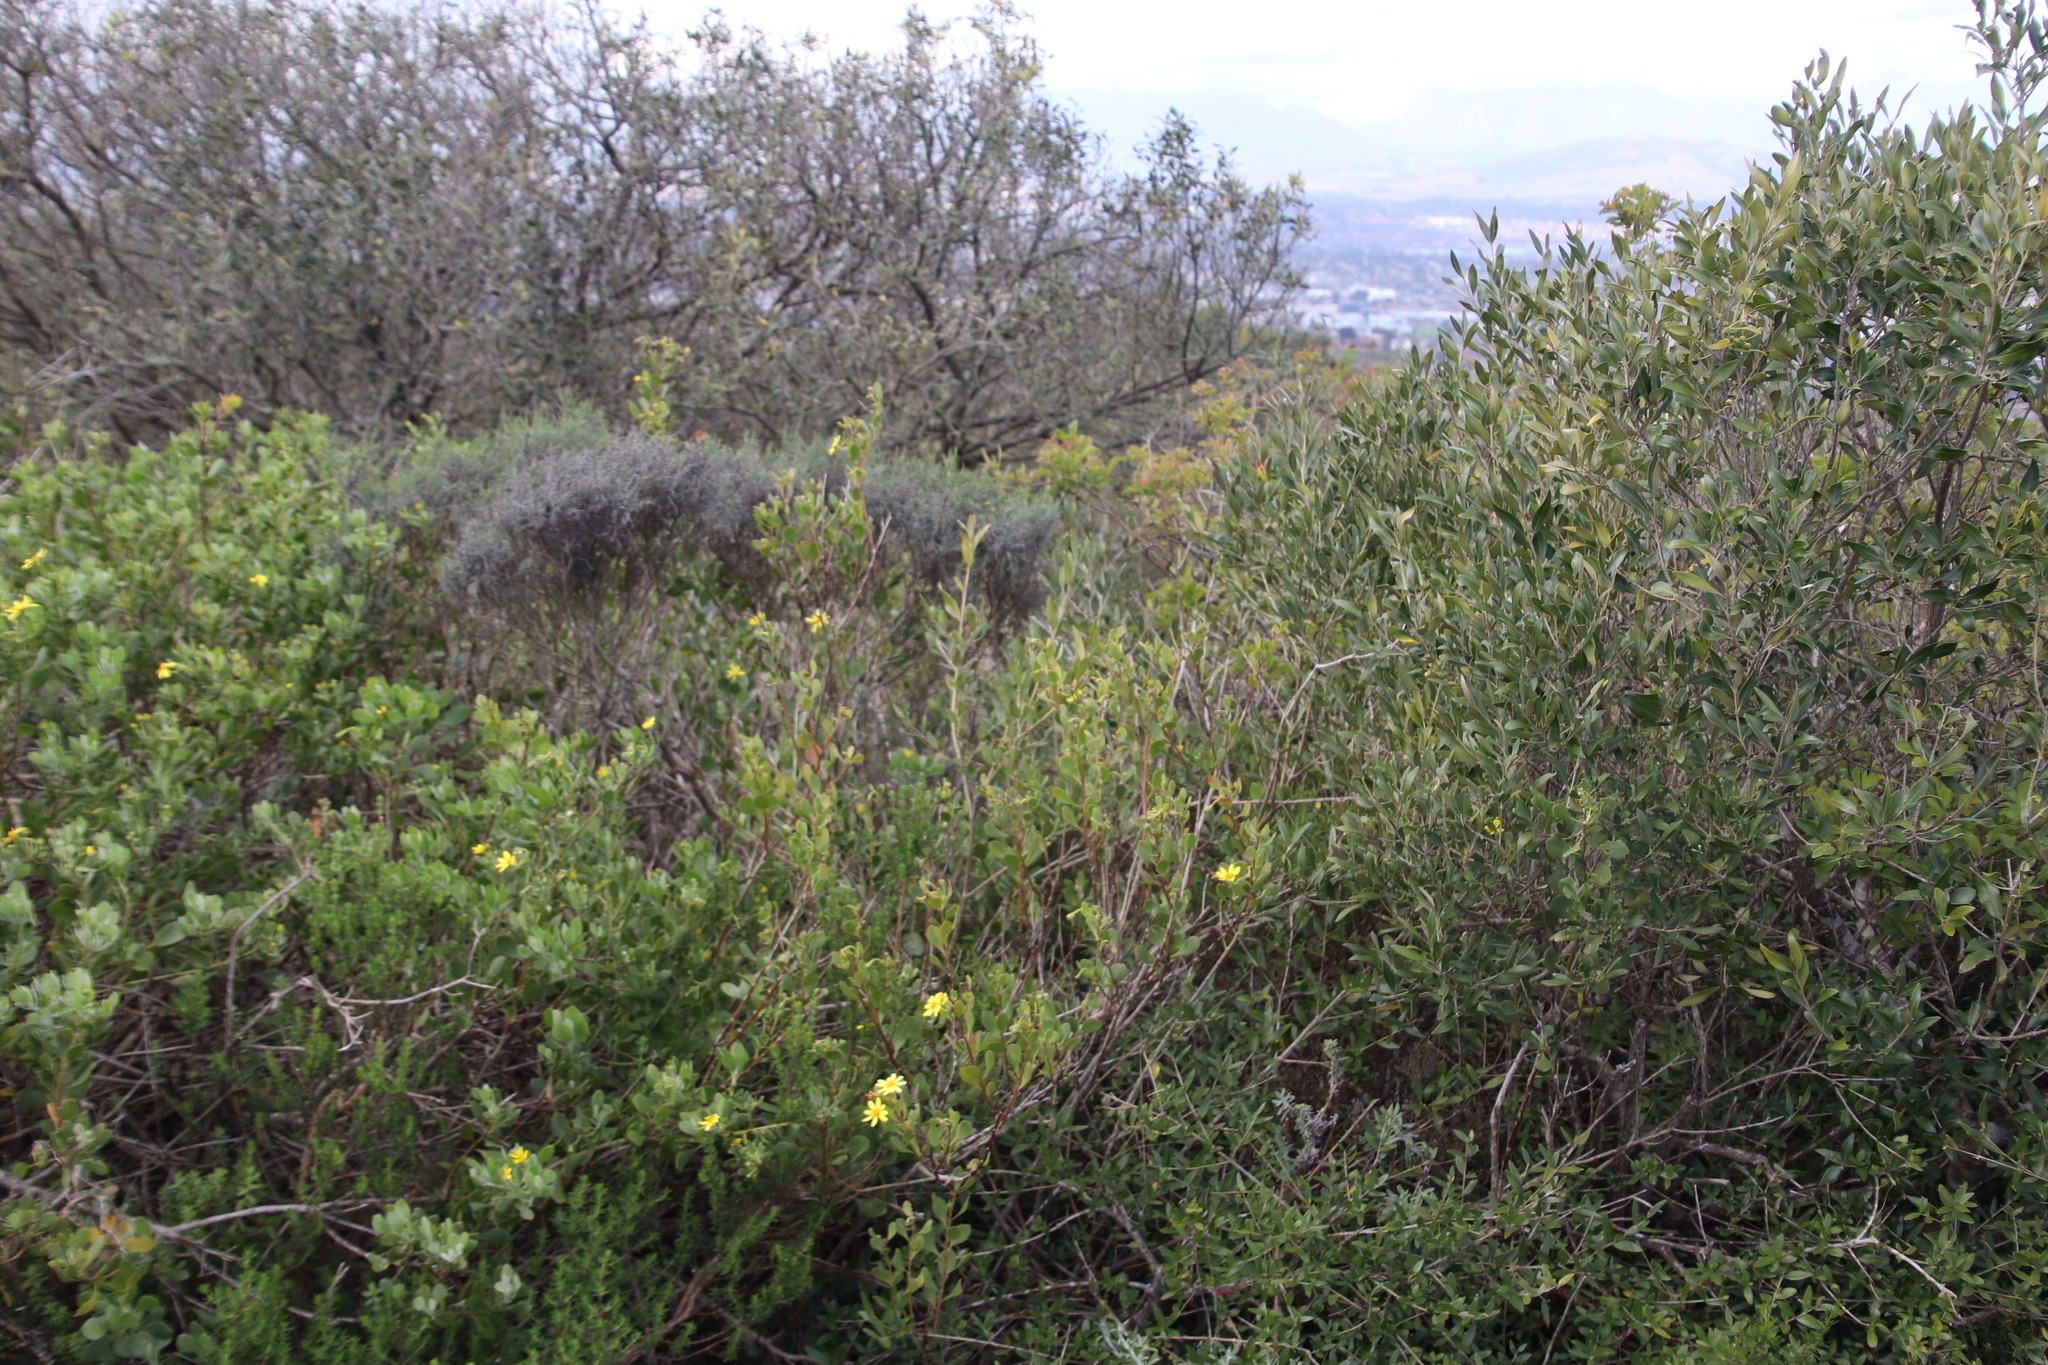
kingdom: Plantae
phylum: Tracheophyta
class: Magnoliopsida
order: Asterales
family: Asteraceae
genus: Osteospermum
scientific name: Osteospermum moniliferum
